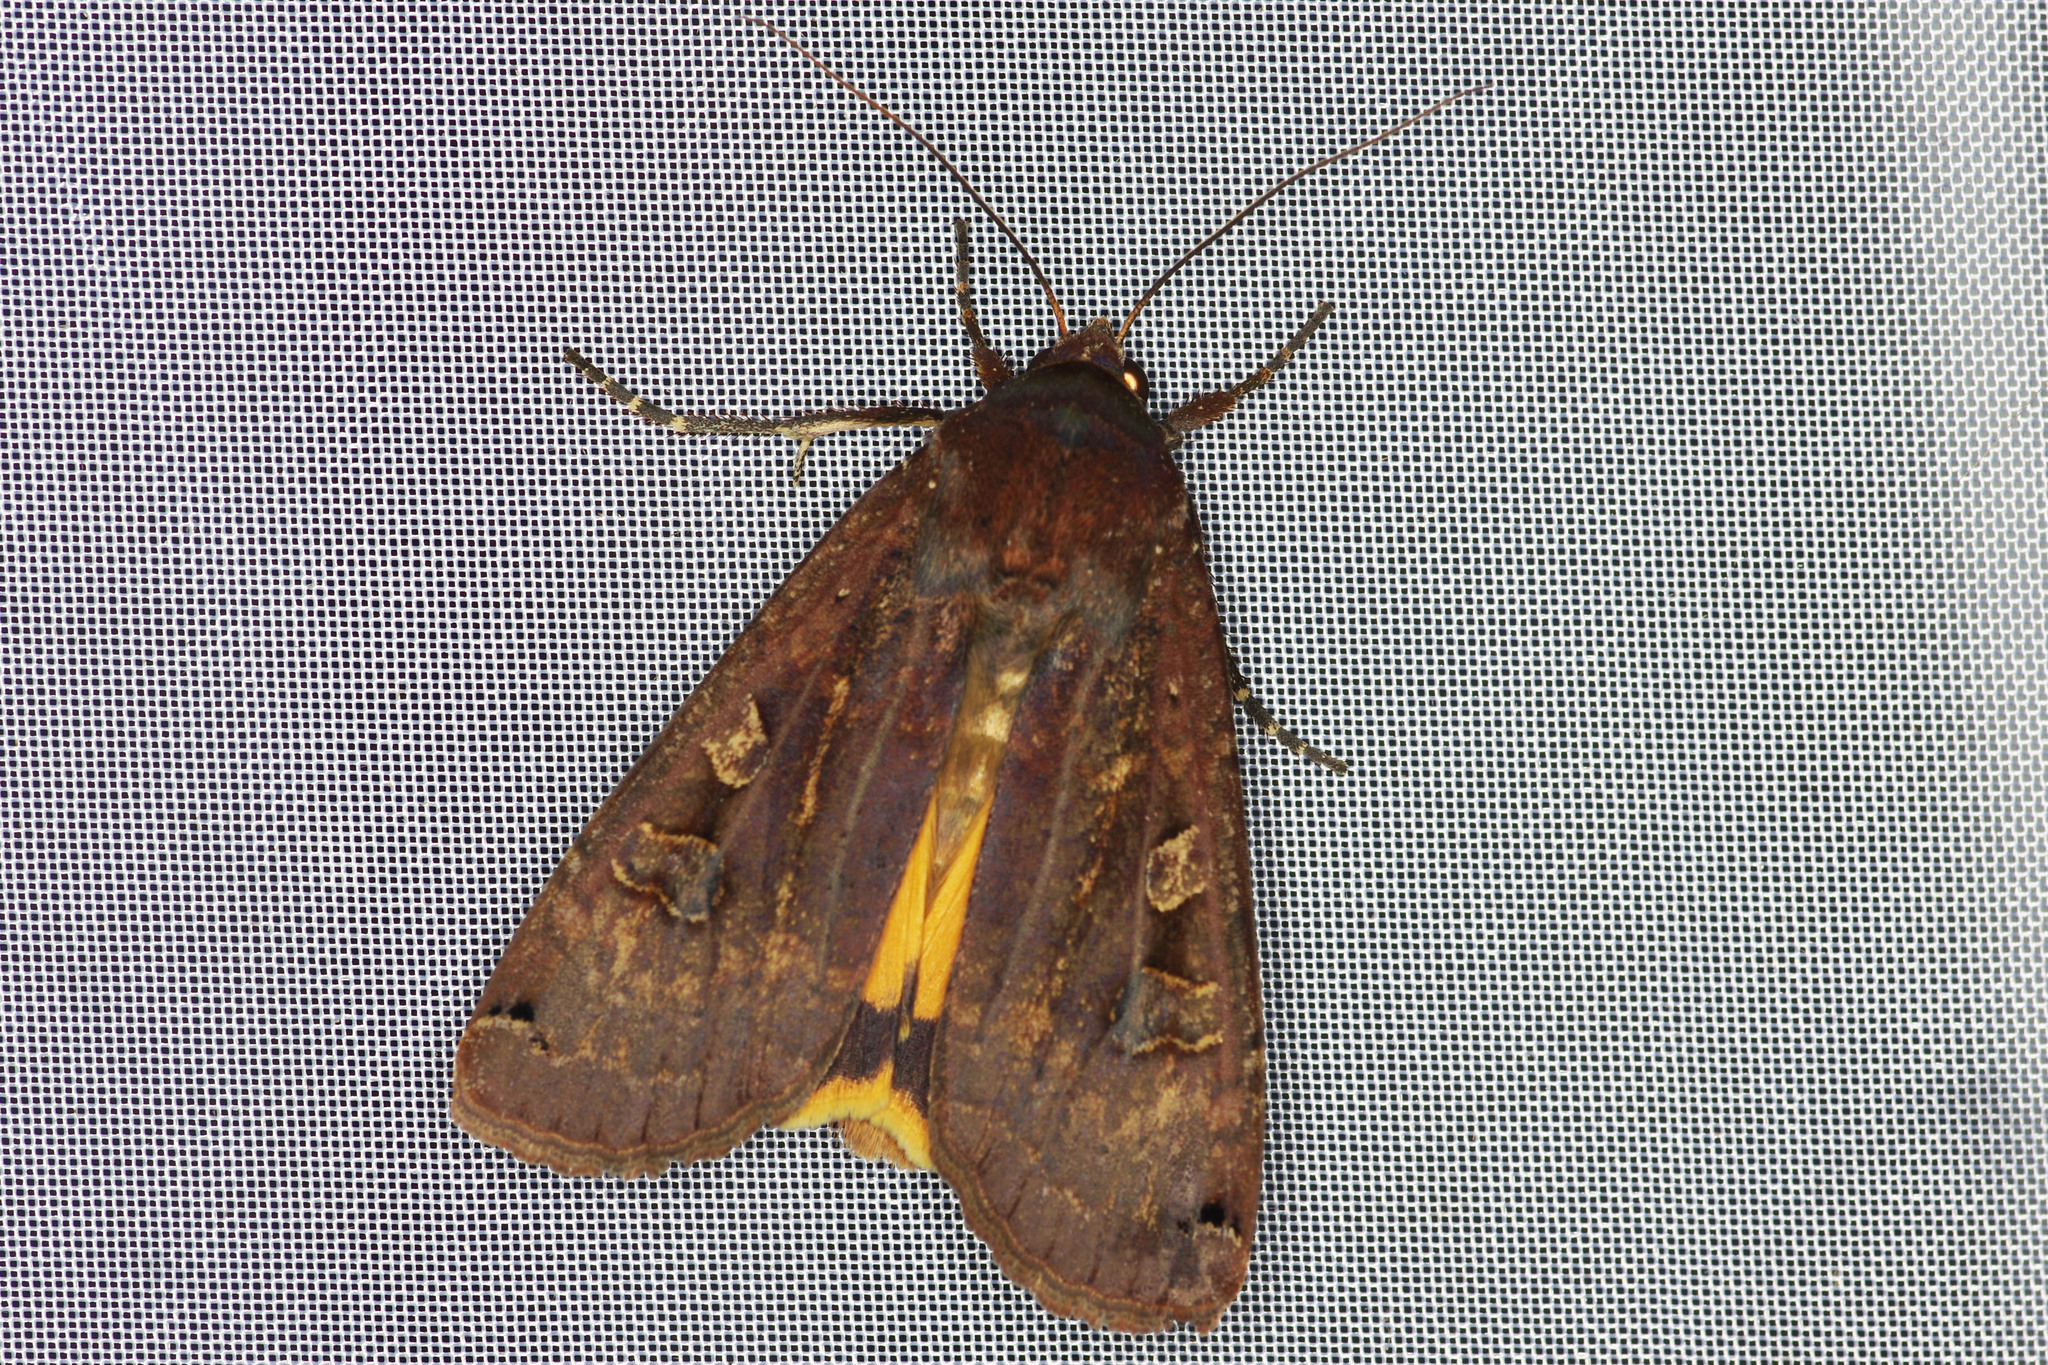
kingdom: Animalia
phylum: Arthropoda
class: Insecta
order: Lepidoptera
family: Noctuidae
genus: Noctua
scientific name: Noctua pronuba
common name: Large yellow underwing
